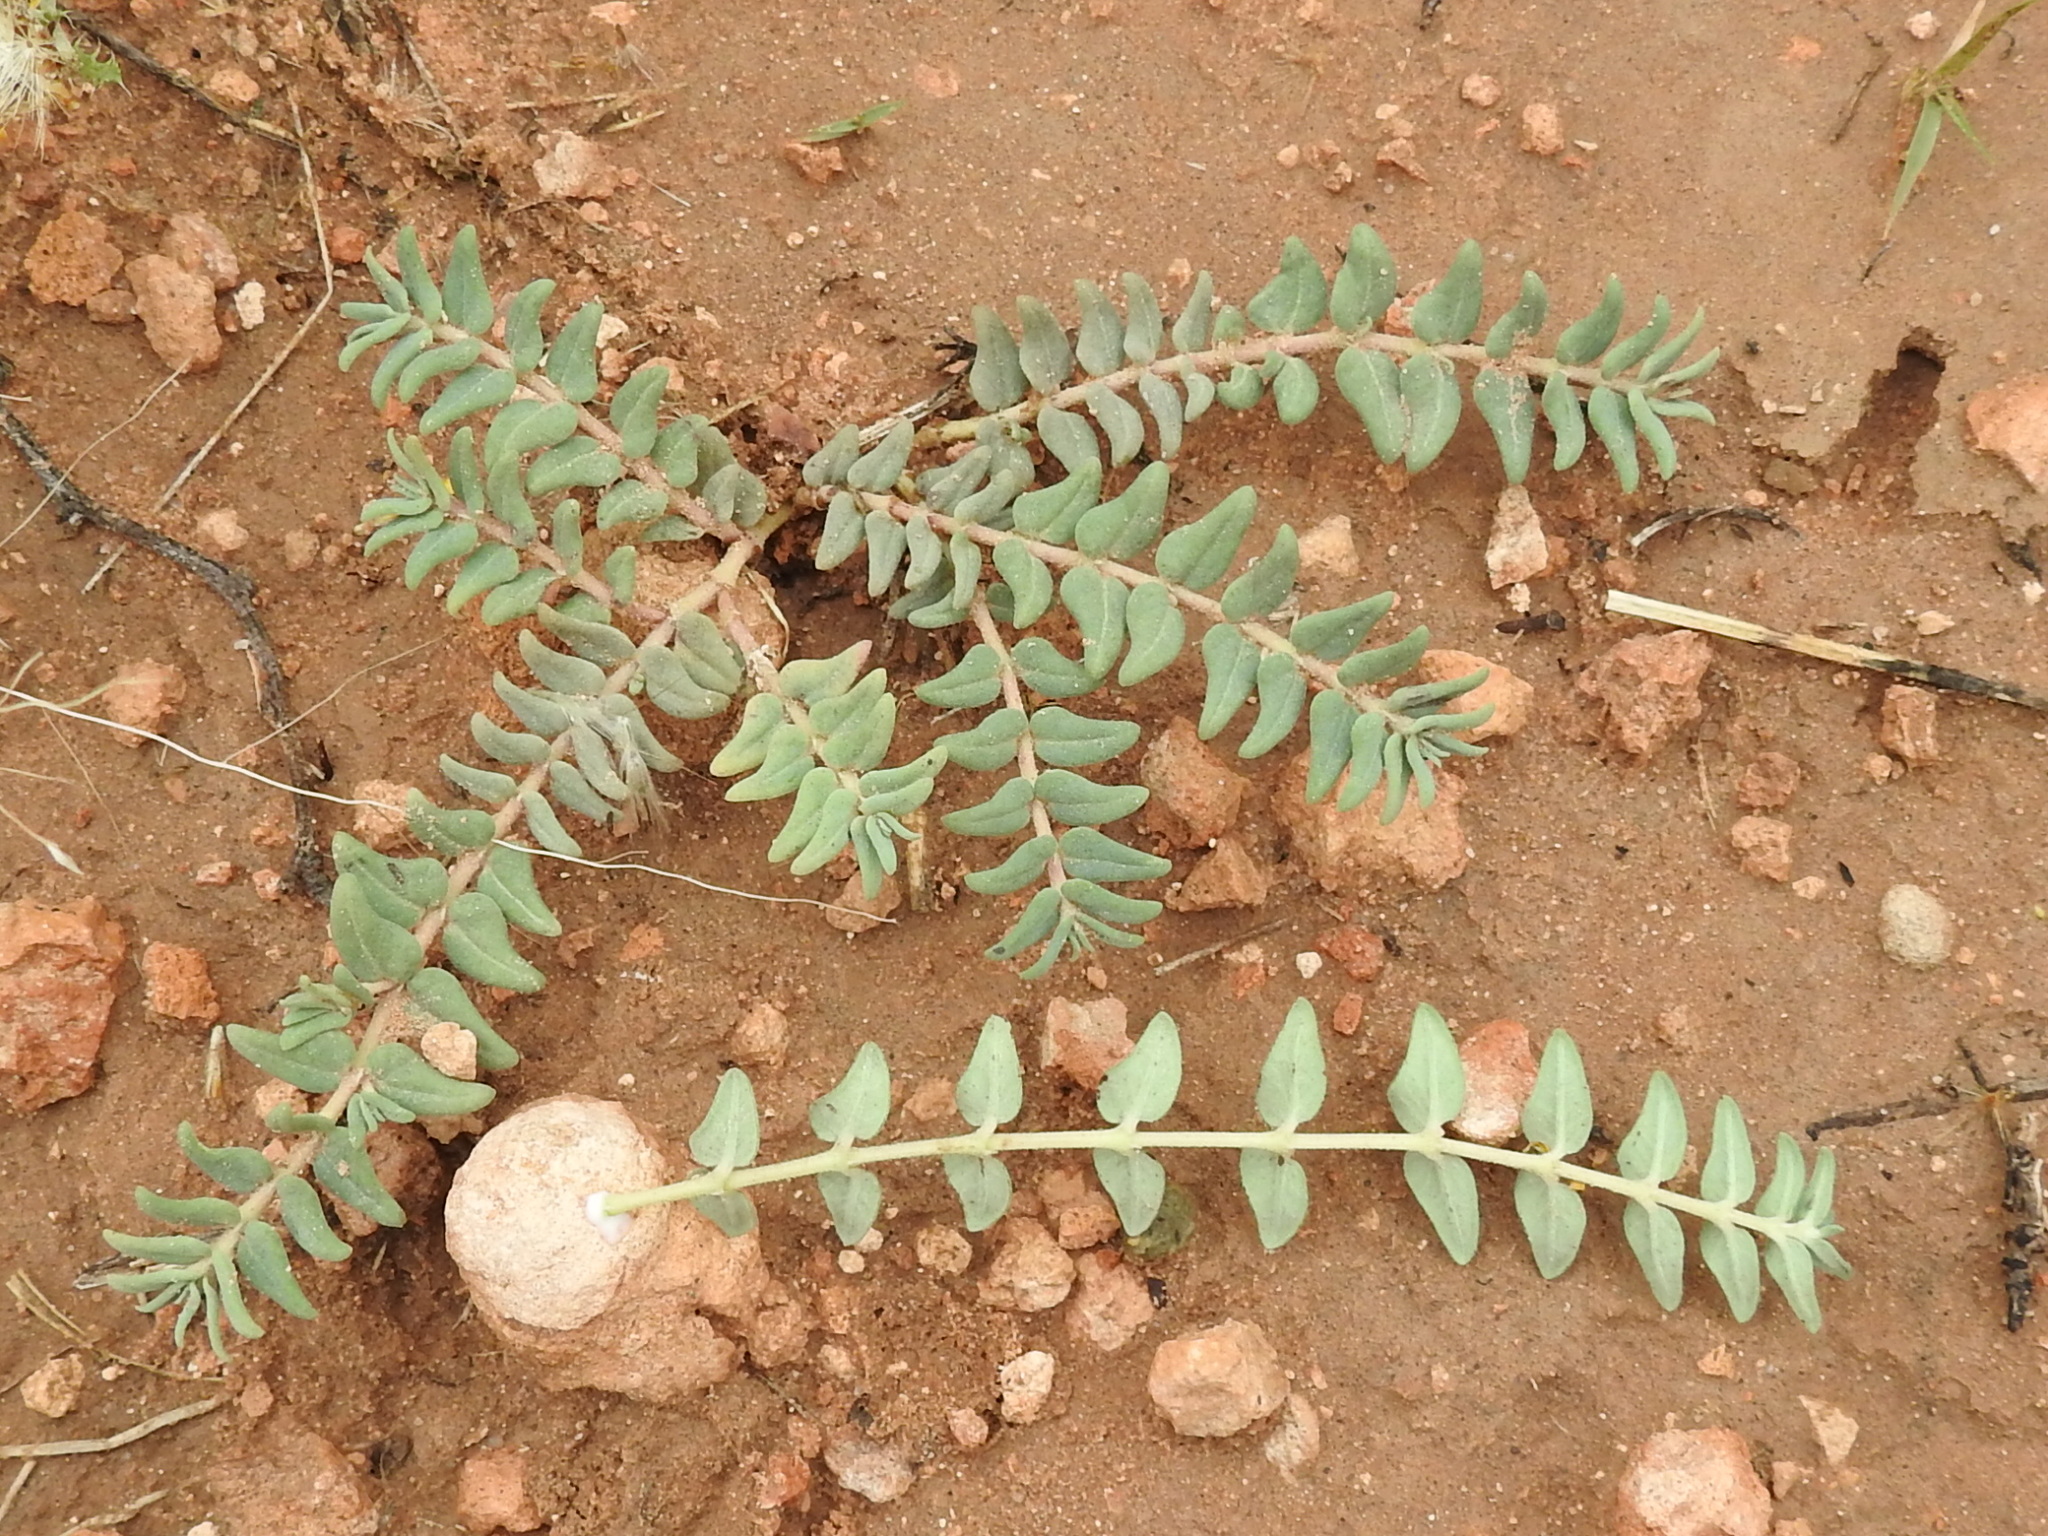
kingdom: Plantae
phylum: Tracheophyta
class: Magnoliopsida
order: Malpighiales
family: Euphorbiaceae
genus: Euphorbia
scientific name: Euphorbia lata
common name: Hoary euphorbia
